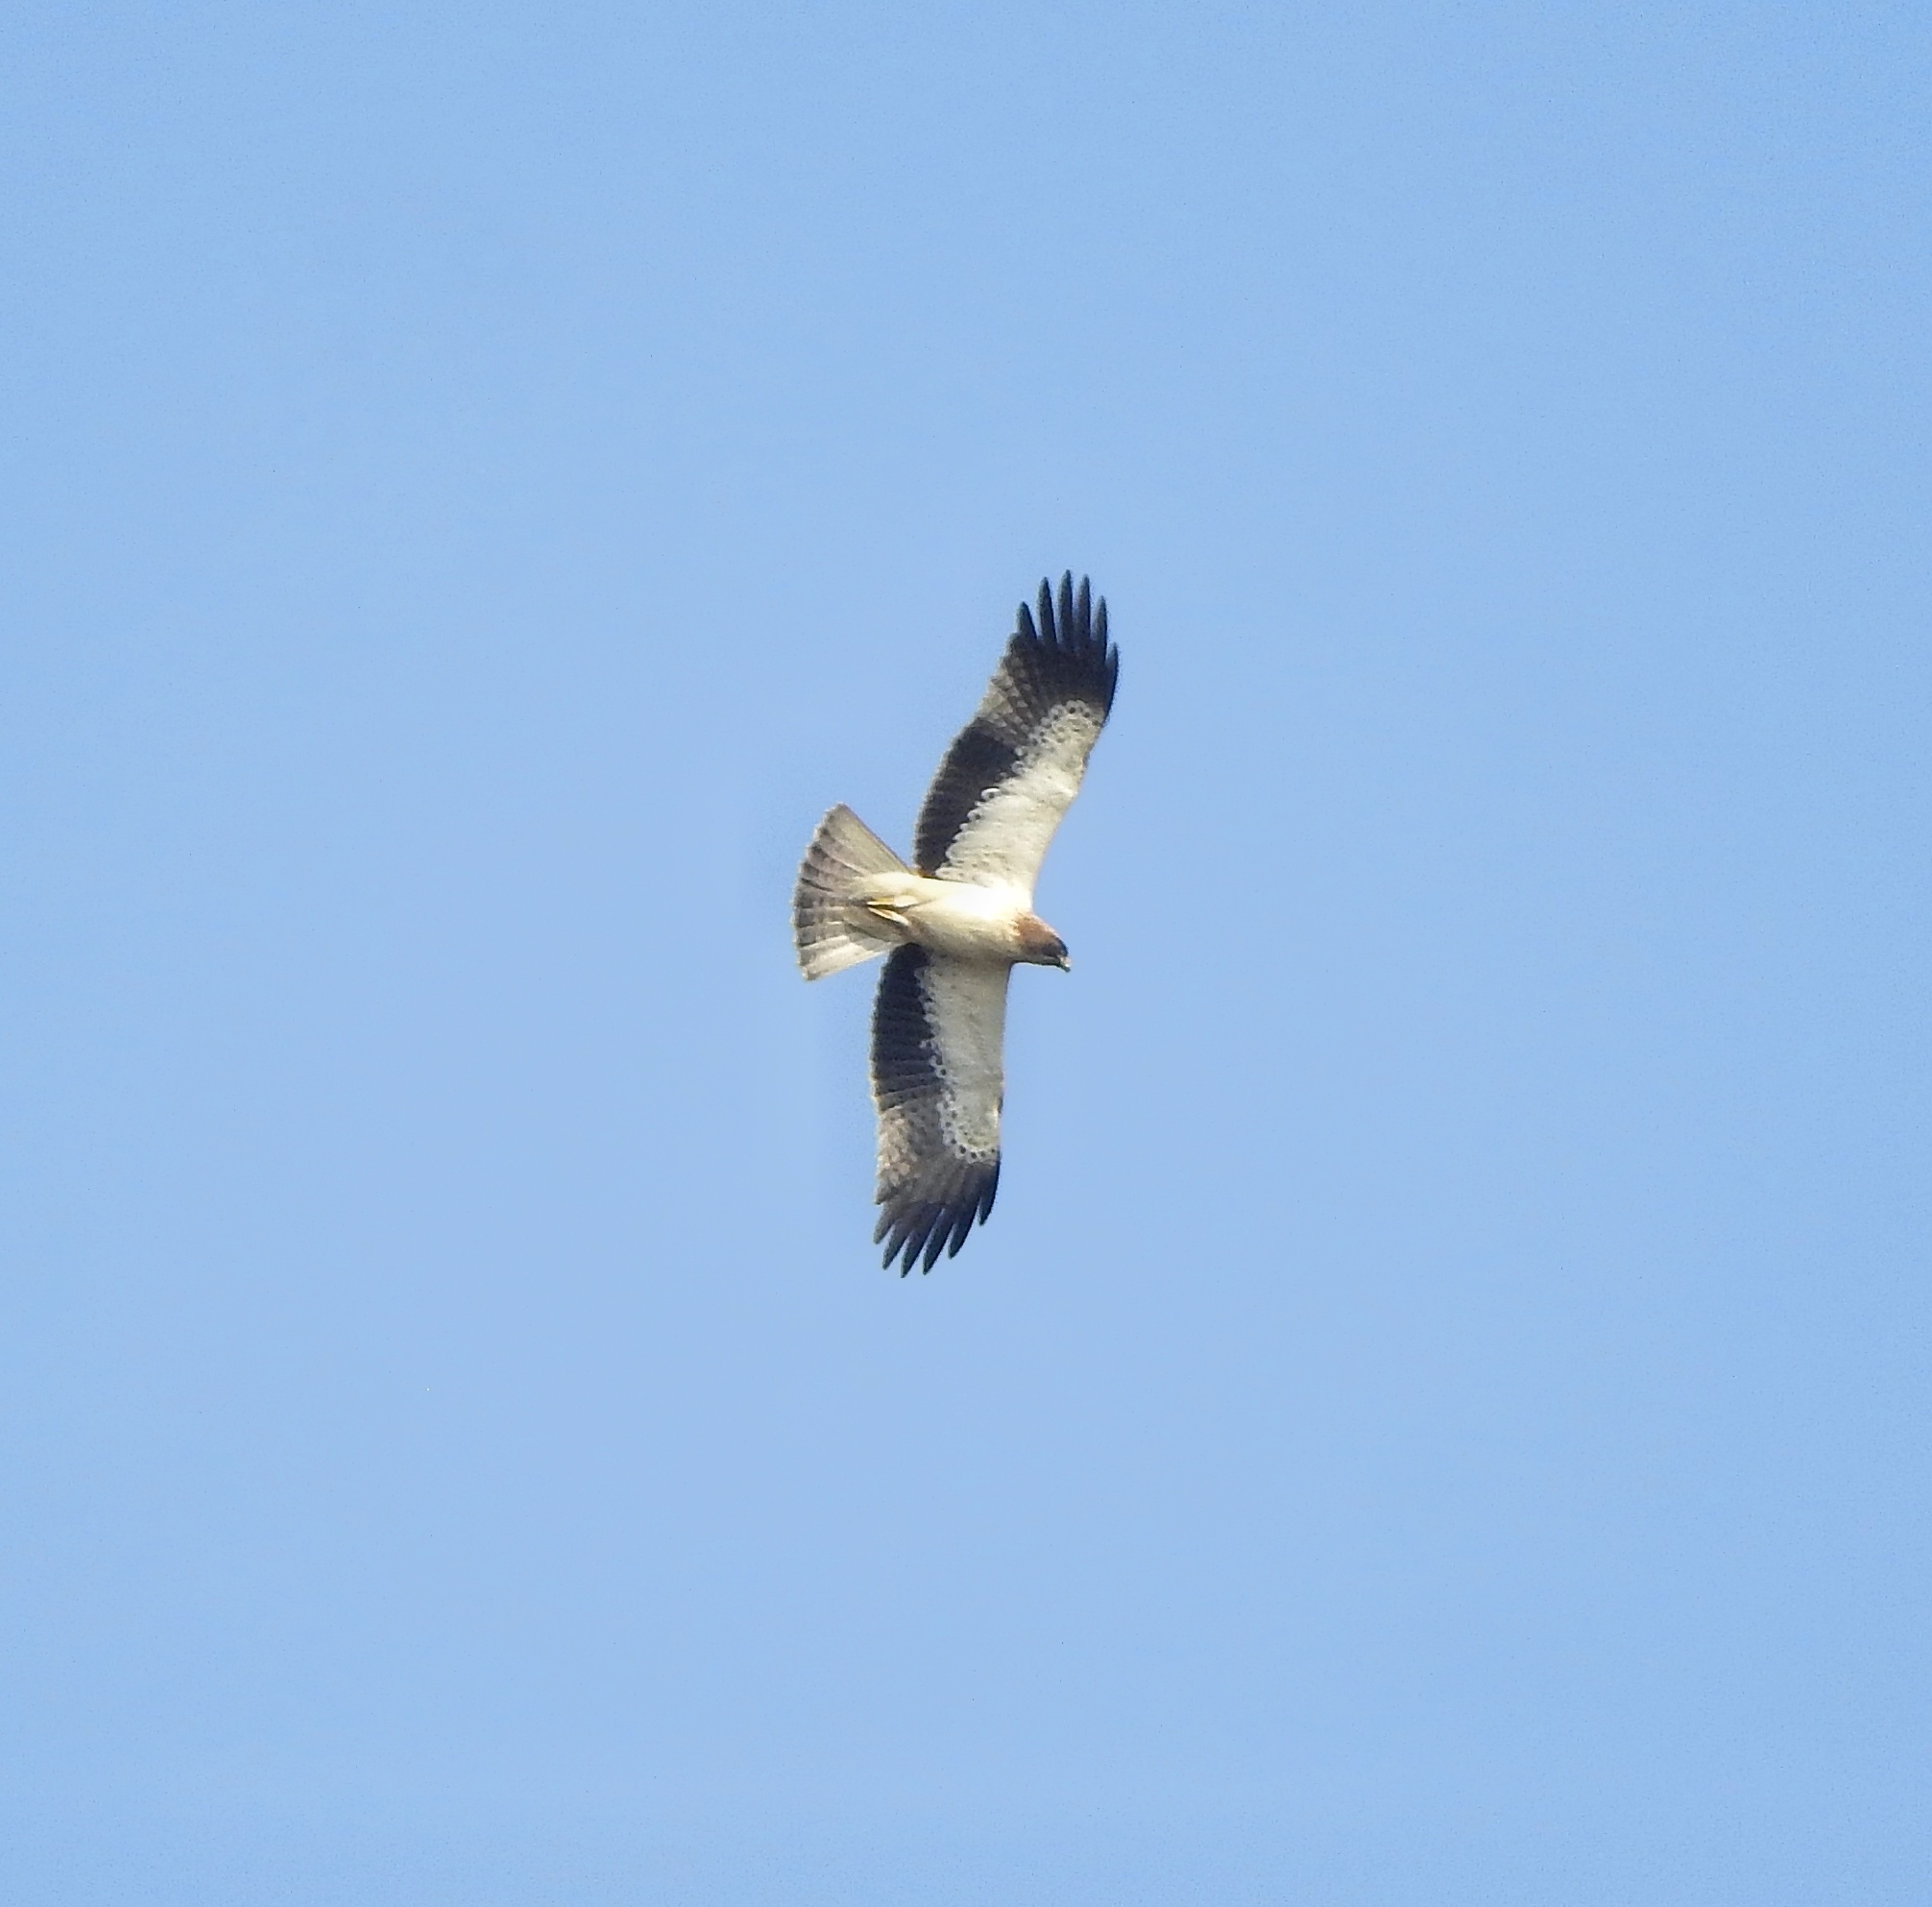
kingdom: Animalia
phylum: Chordata
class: Aves
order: Accipitriformes
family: Accipitridae
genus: Hieraaetus
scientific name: Hieraaetus pennatus
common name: Booted eagle
